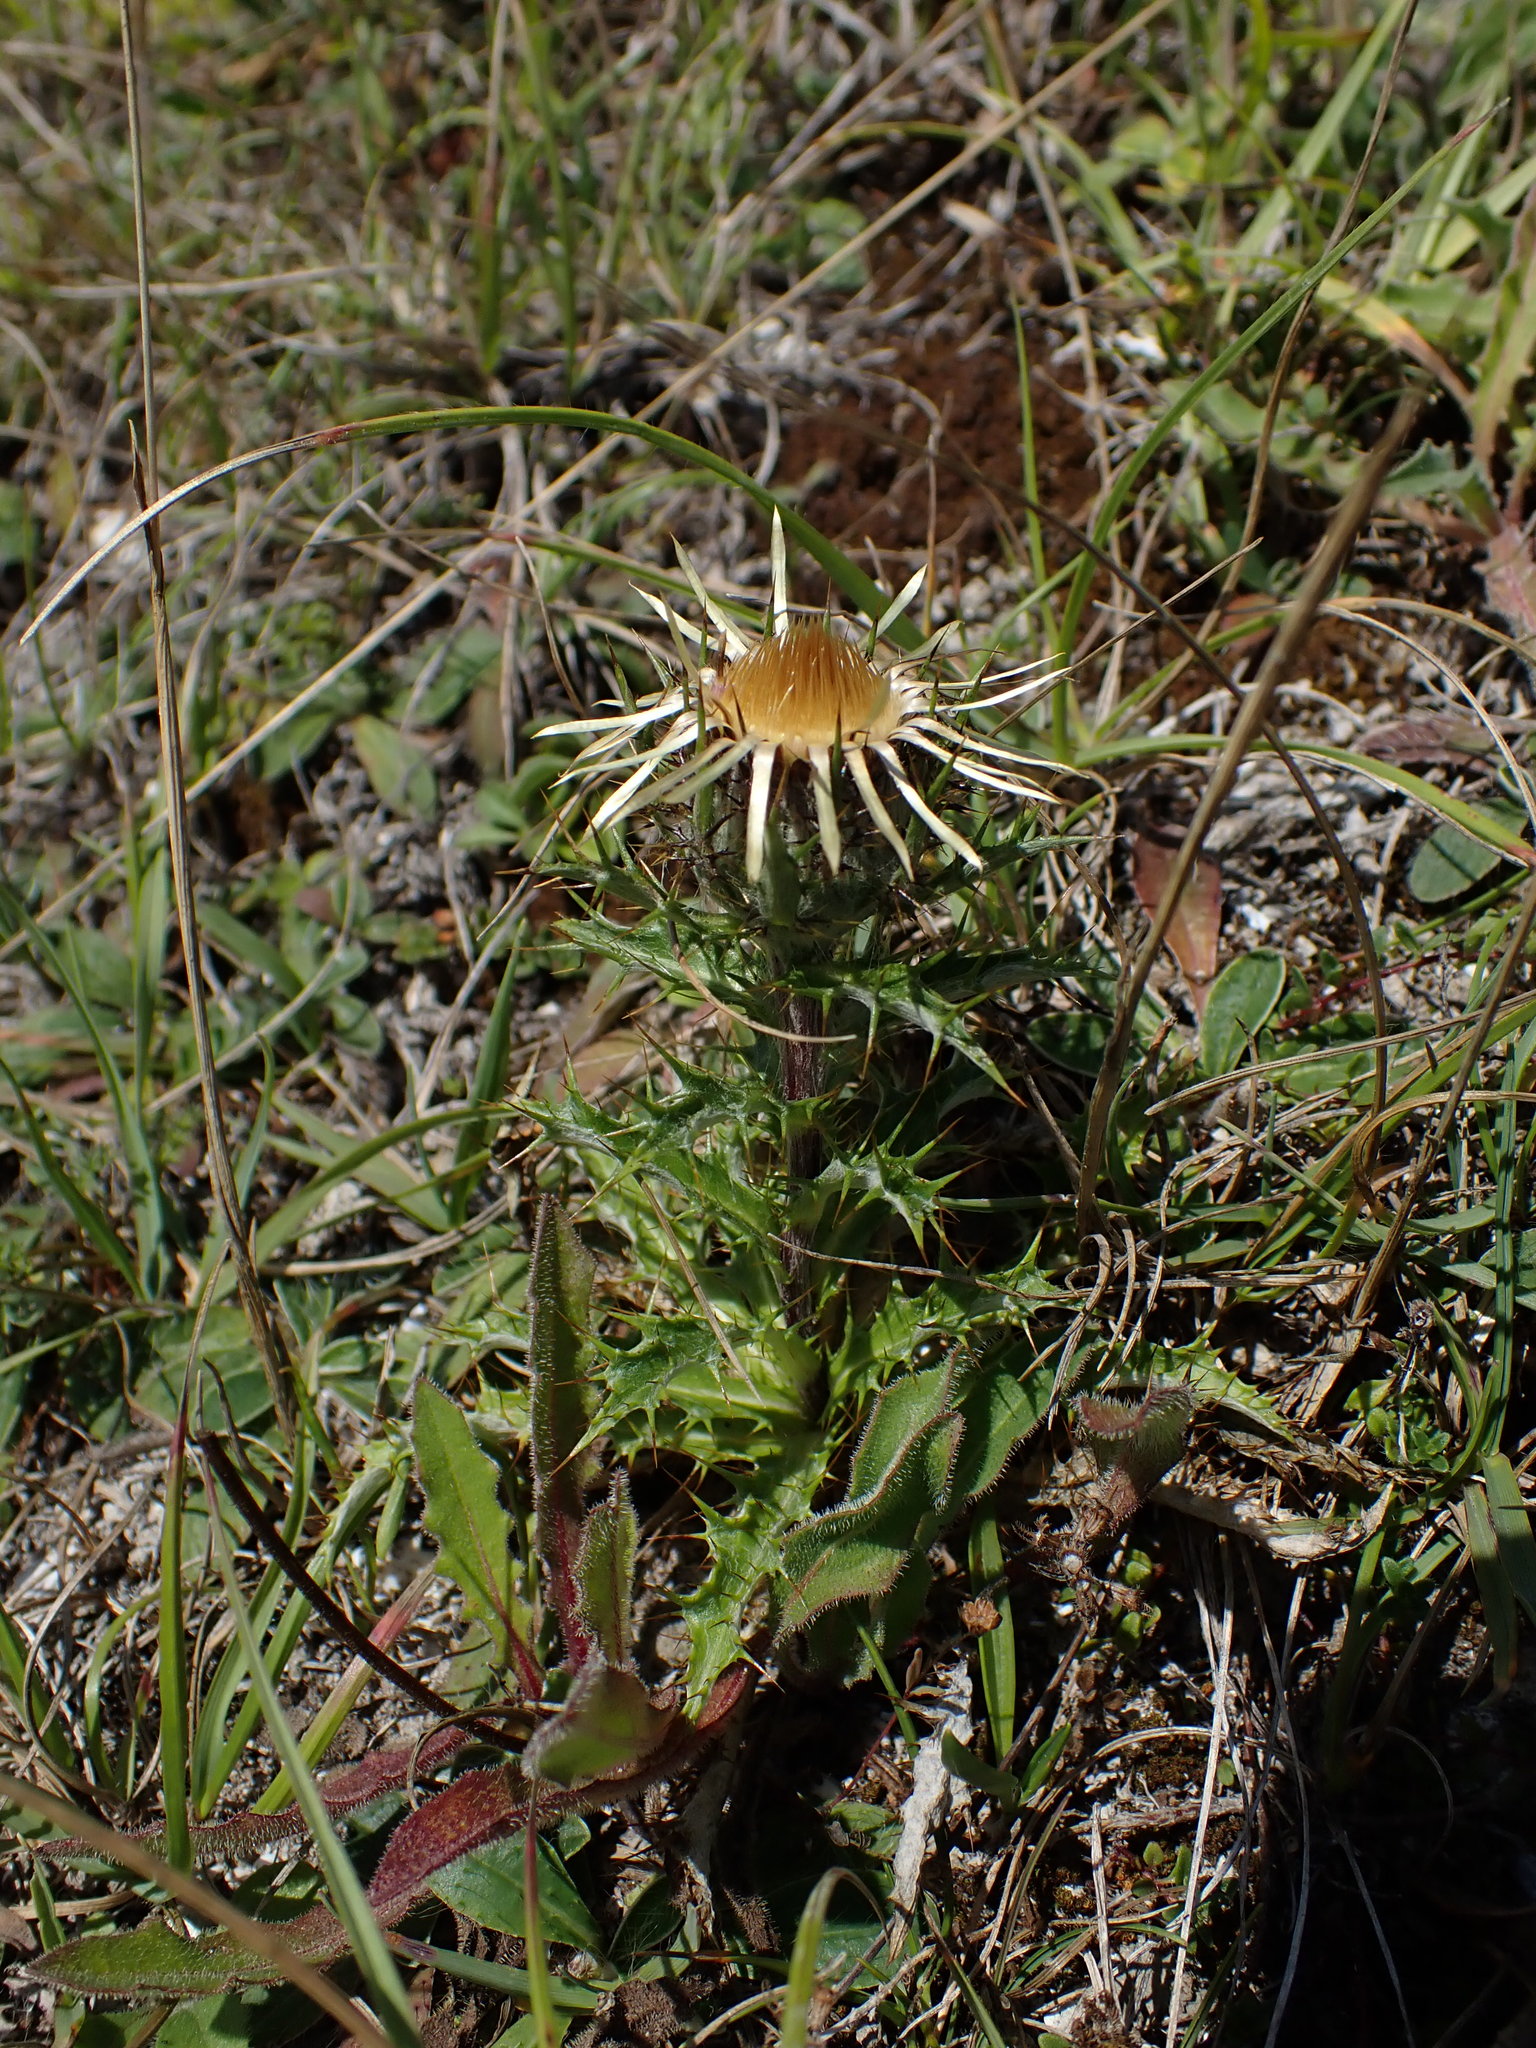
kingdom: Plantae
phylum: Tracheophyta
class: Magnoliopsida
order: Asterales
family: Asteraceae
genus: Carlina
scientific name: Carlina vulgaris
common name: Carline thistle
